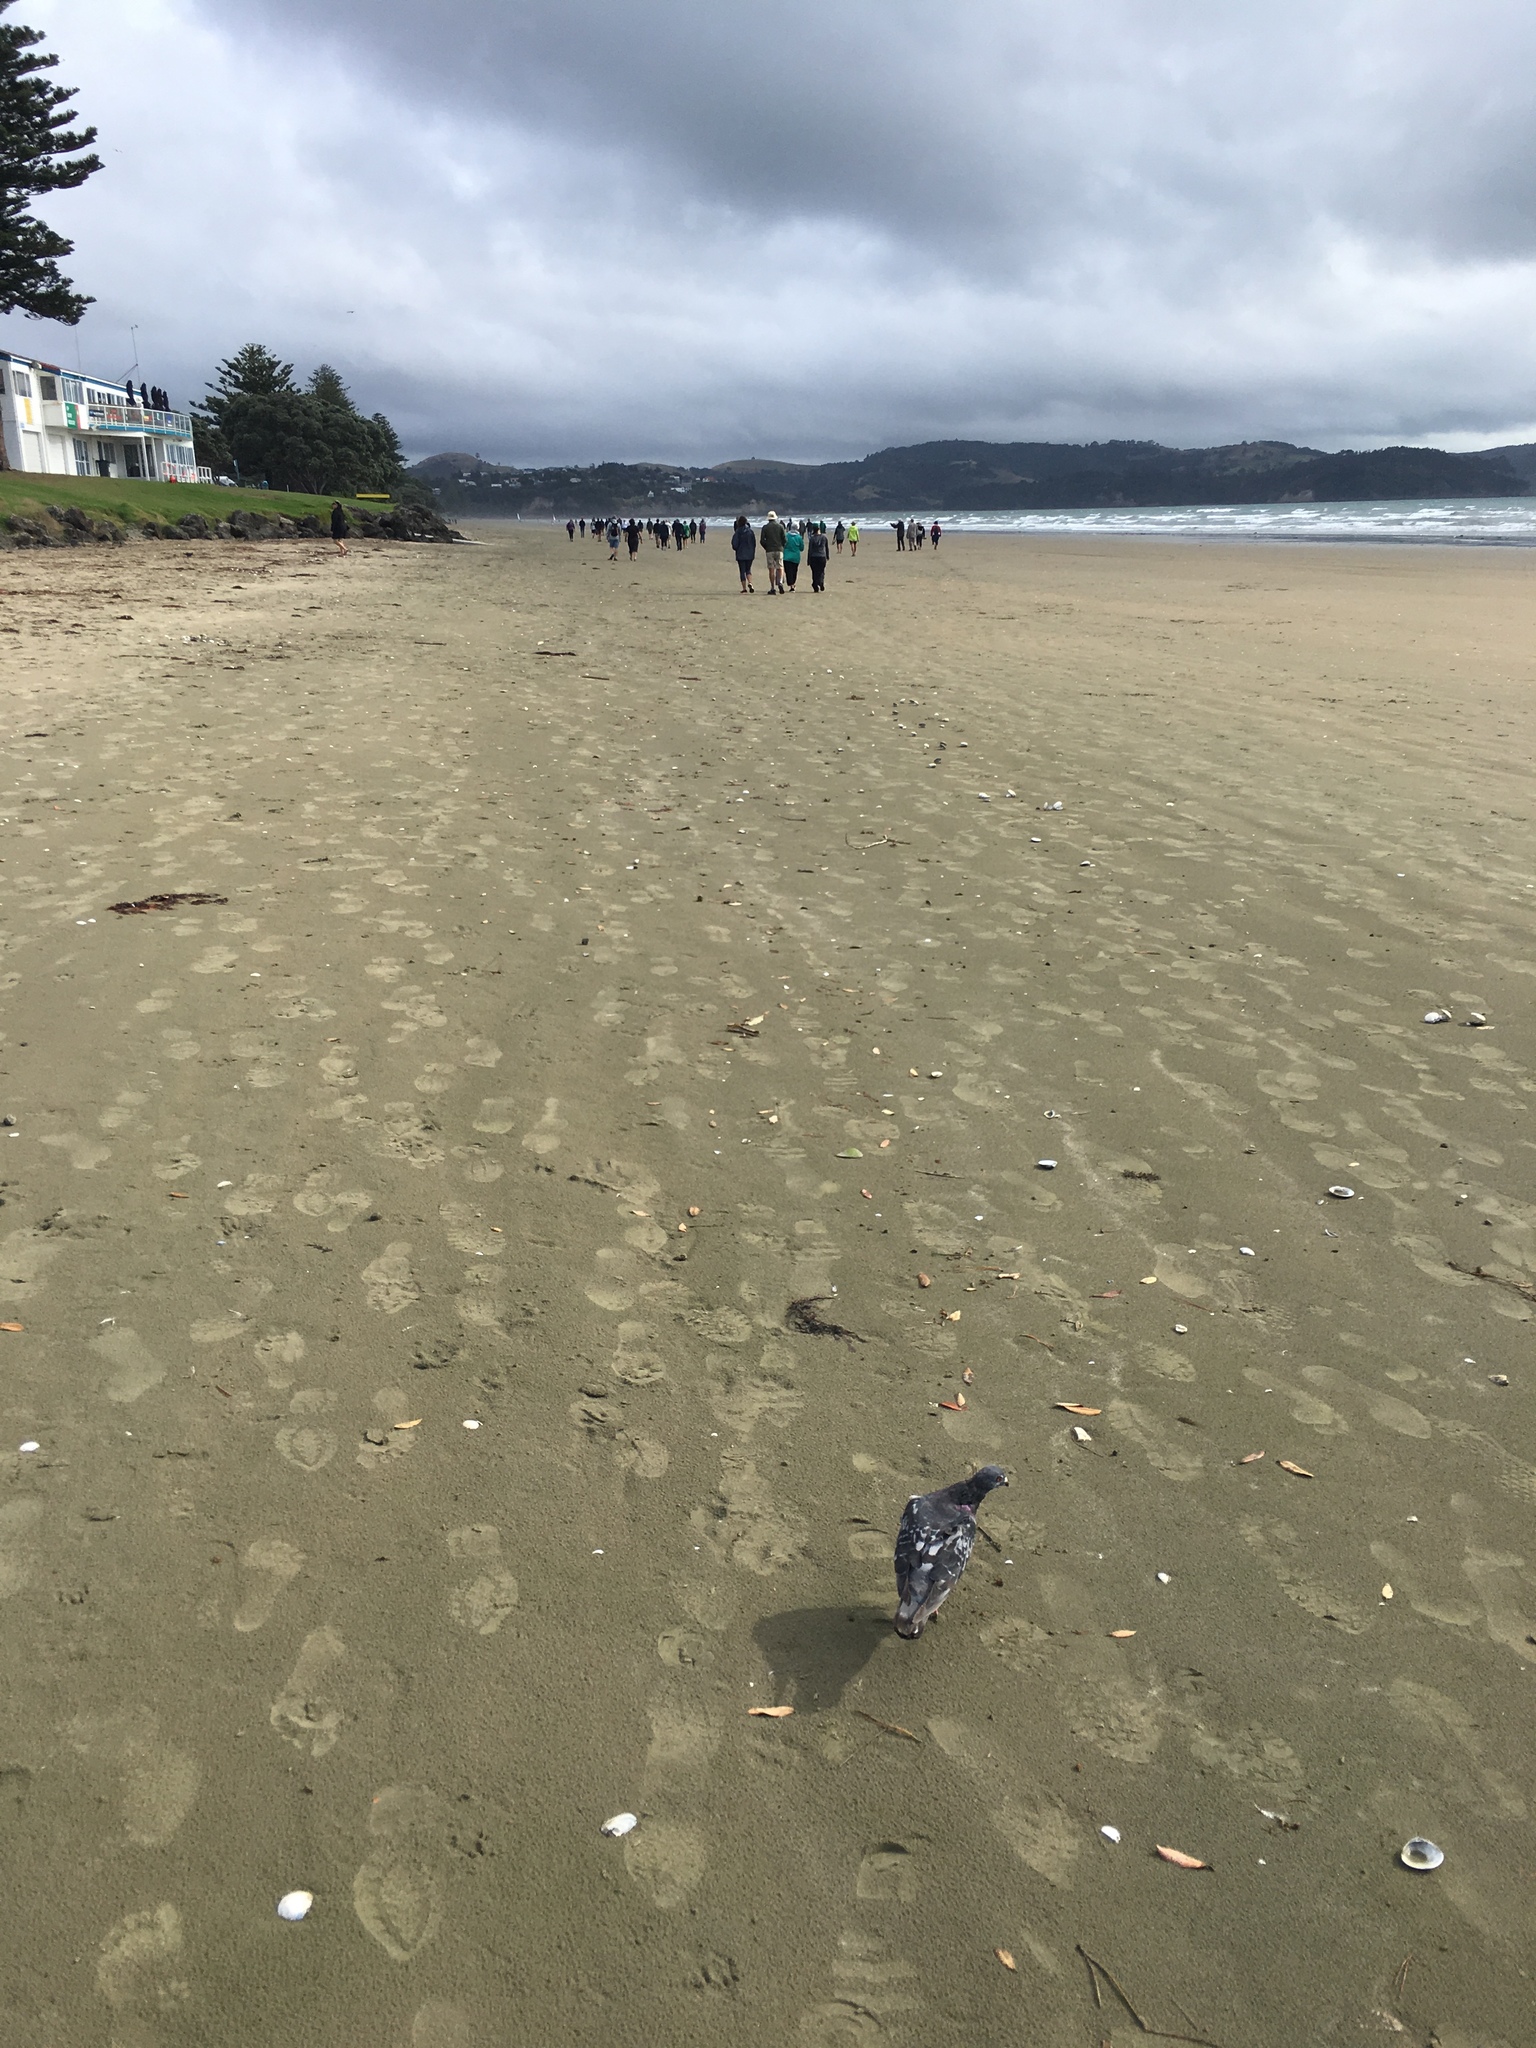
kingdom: Animalia
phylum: Chordata
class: Aves
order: Columbiformes
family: Columbidae
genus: Columba
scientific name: Columba livia
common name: Rock pigeon
